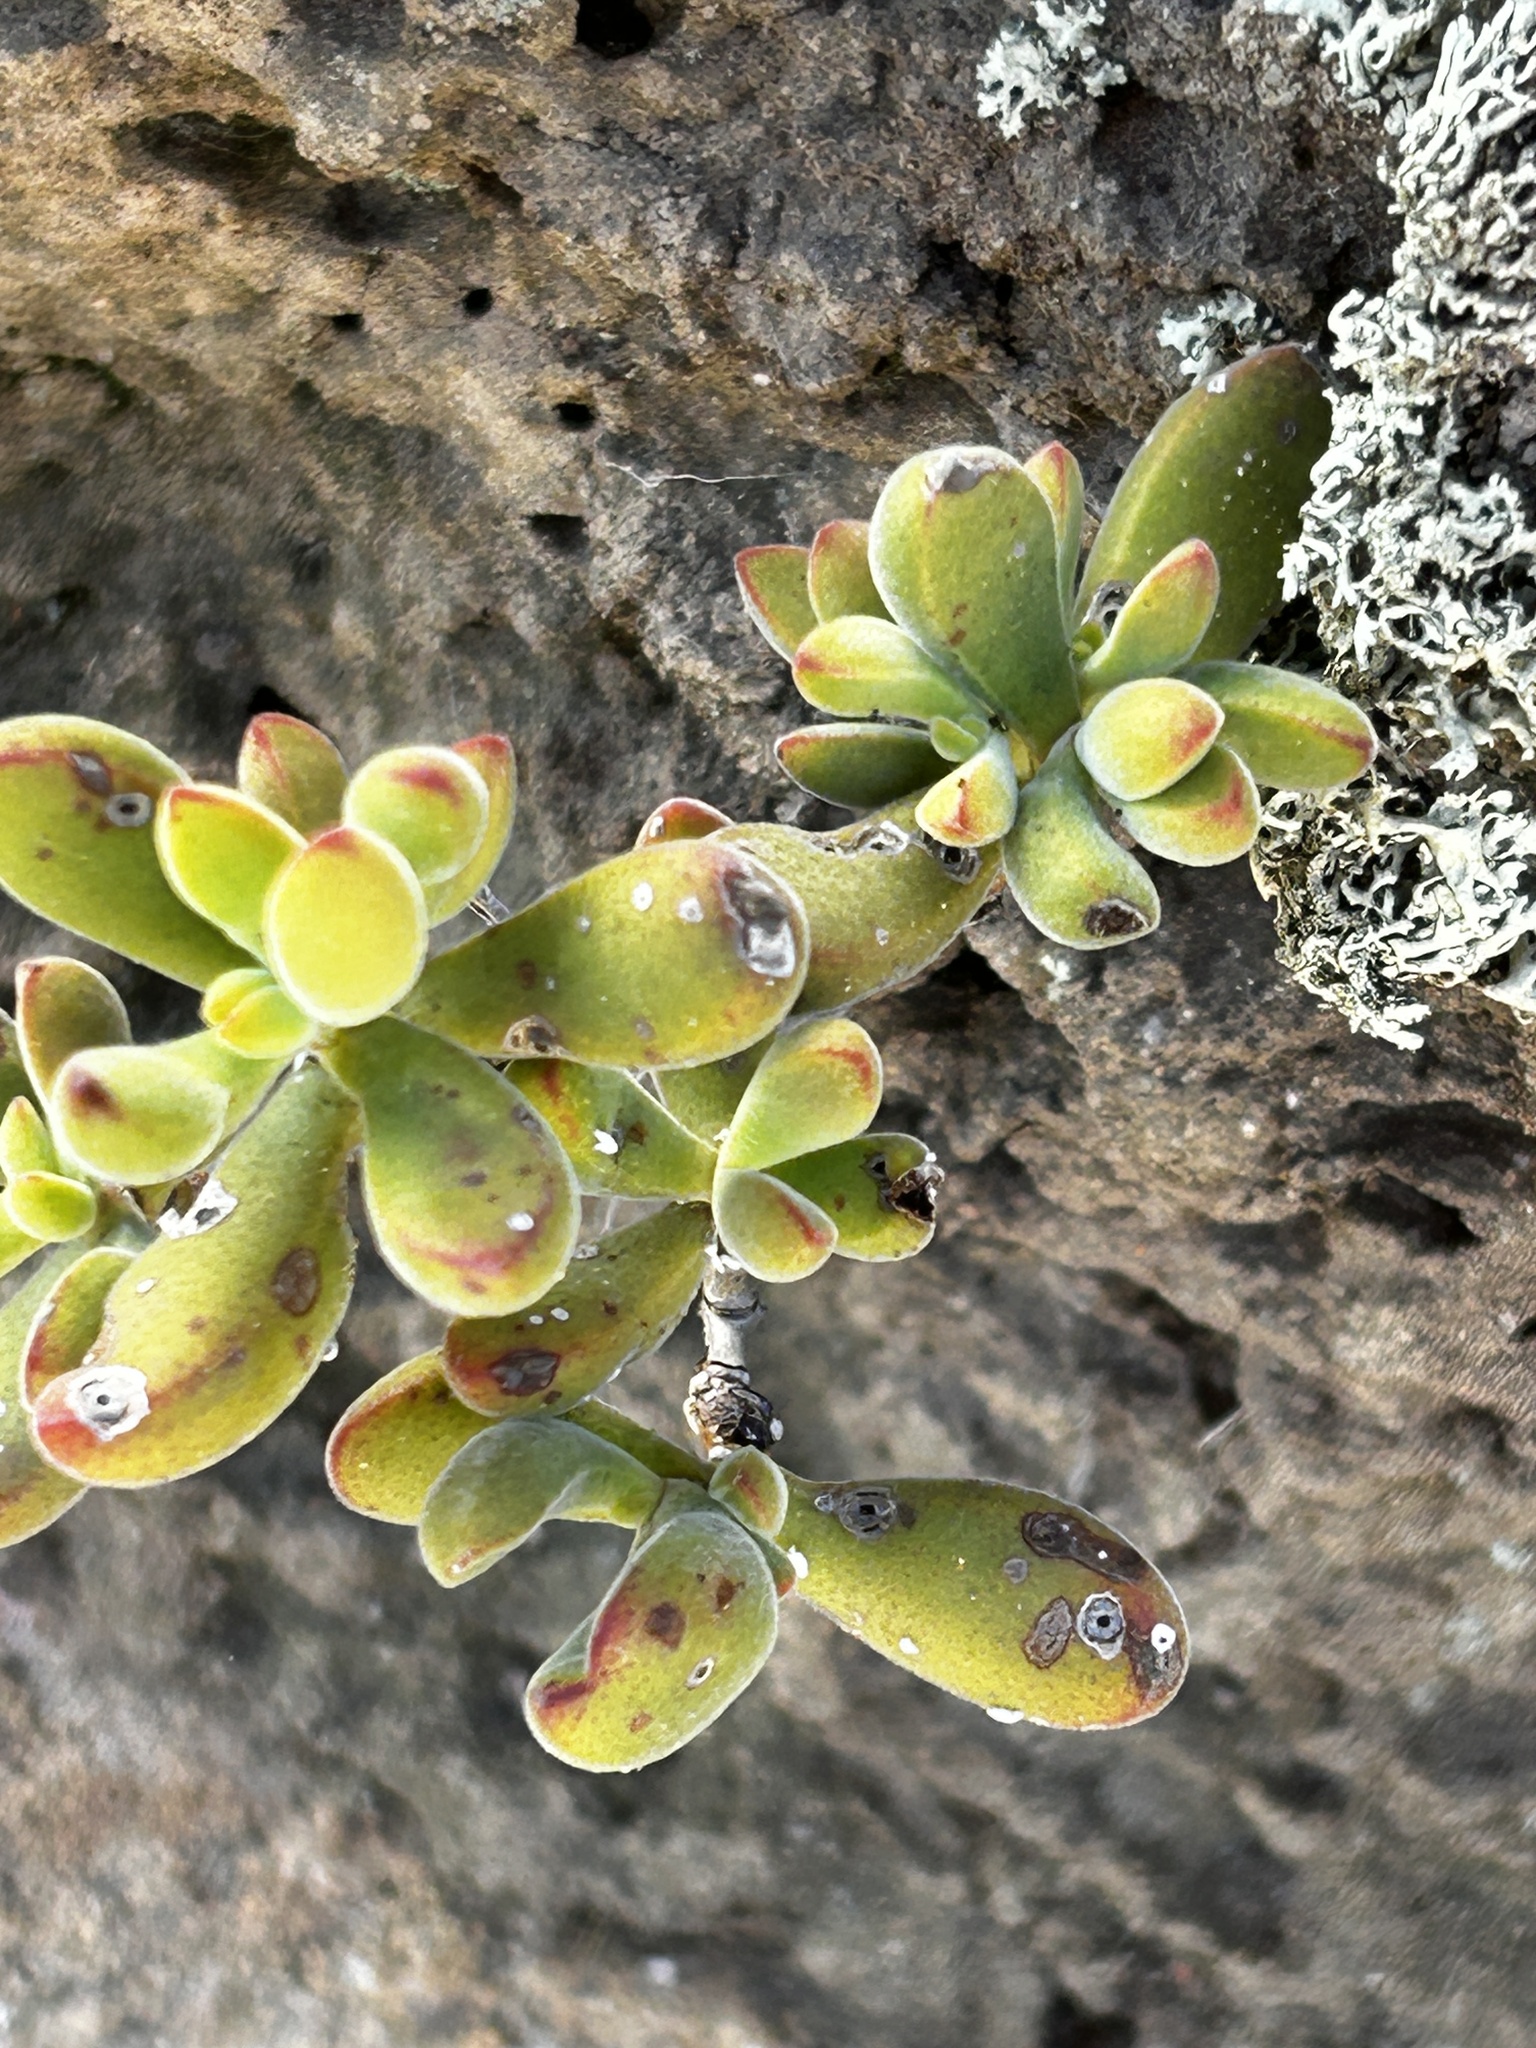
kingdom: Plantae
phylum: Tracheophyta
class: Magnoliopsida
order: Saxifragales
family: Crassulaceae
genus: Crassula
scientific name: Crassula atropurpurea
